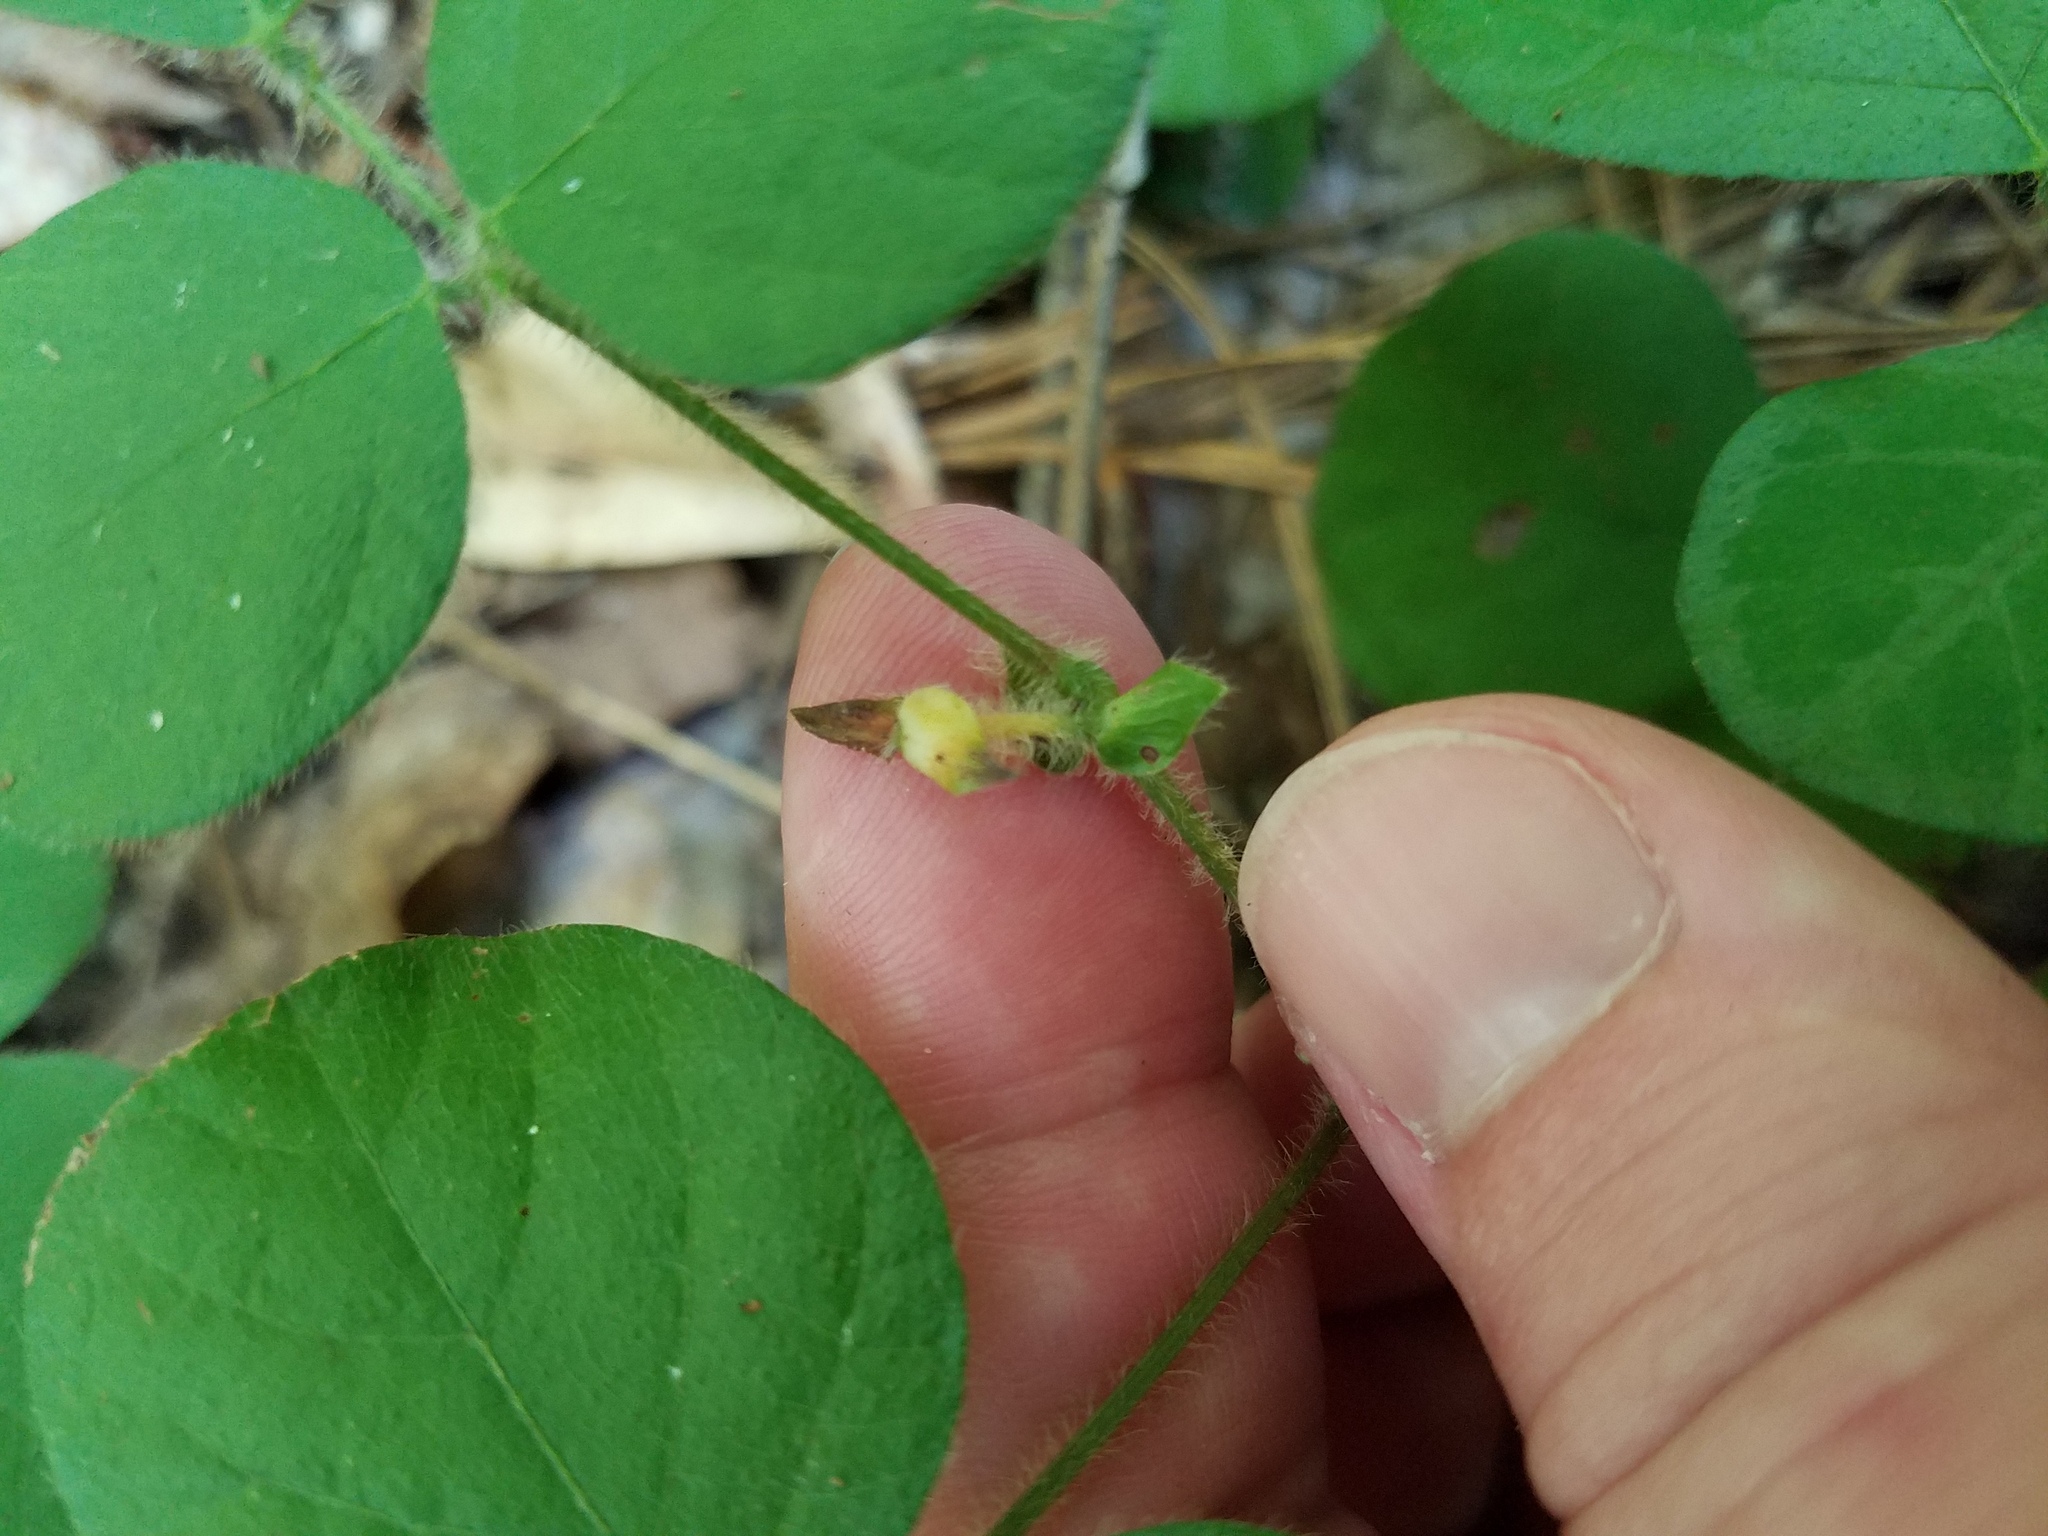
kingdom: Plantae
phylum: Tracheophyta
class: Magnoliopsida
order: Fabales
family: Fabaceae
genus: Desmodium
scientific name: Desmodium rotundifolium
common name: Dollarleaf
